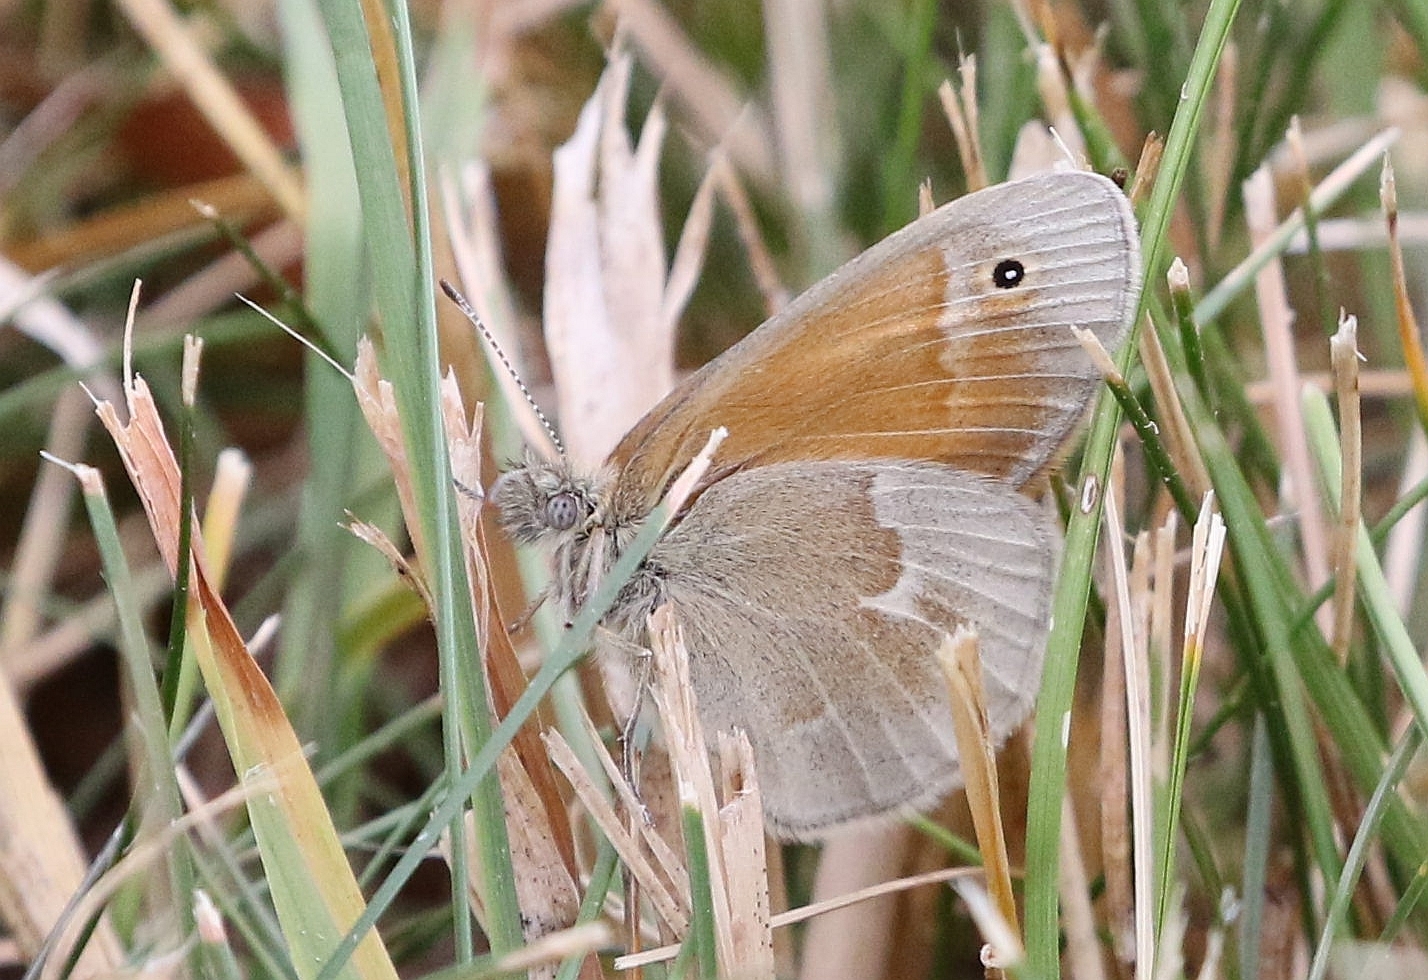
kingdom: Animalia
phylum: Arthropoda
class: Insecta
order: Lepidoptera
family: Nymphalidae
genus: Coenonympha
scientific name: Coenonympha california
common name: Common ringlet
